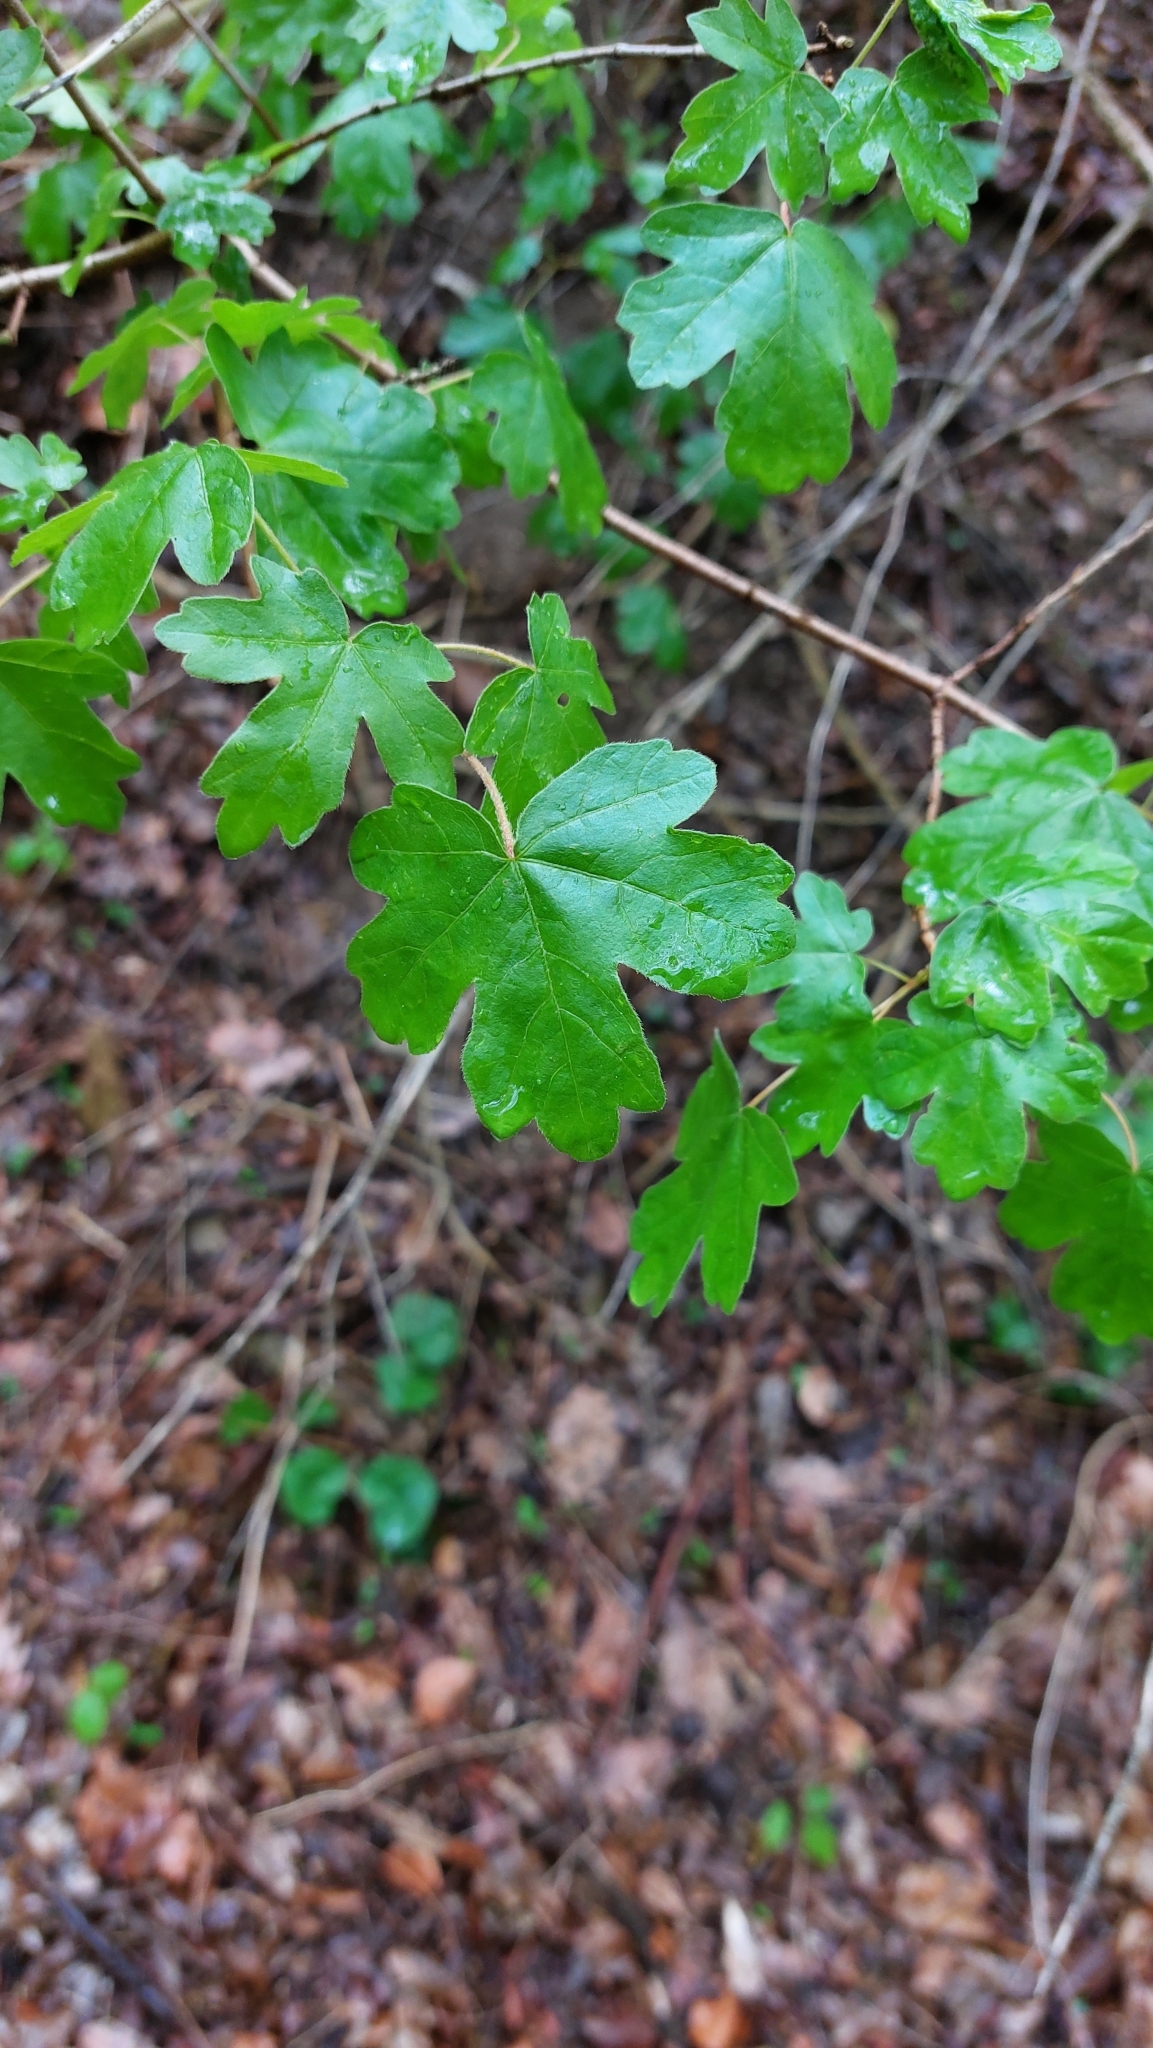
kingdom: Plantae
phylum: Tracheophyta
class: Magnoliopsida
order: Sapindales
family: Sapindaceae
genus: Acer
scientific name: Acer campestre
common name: Field maple
